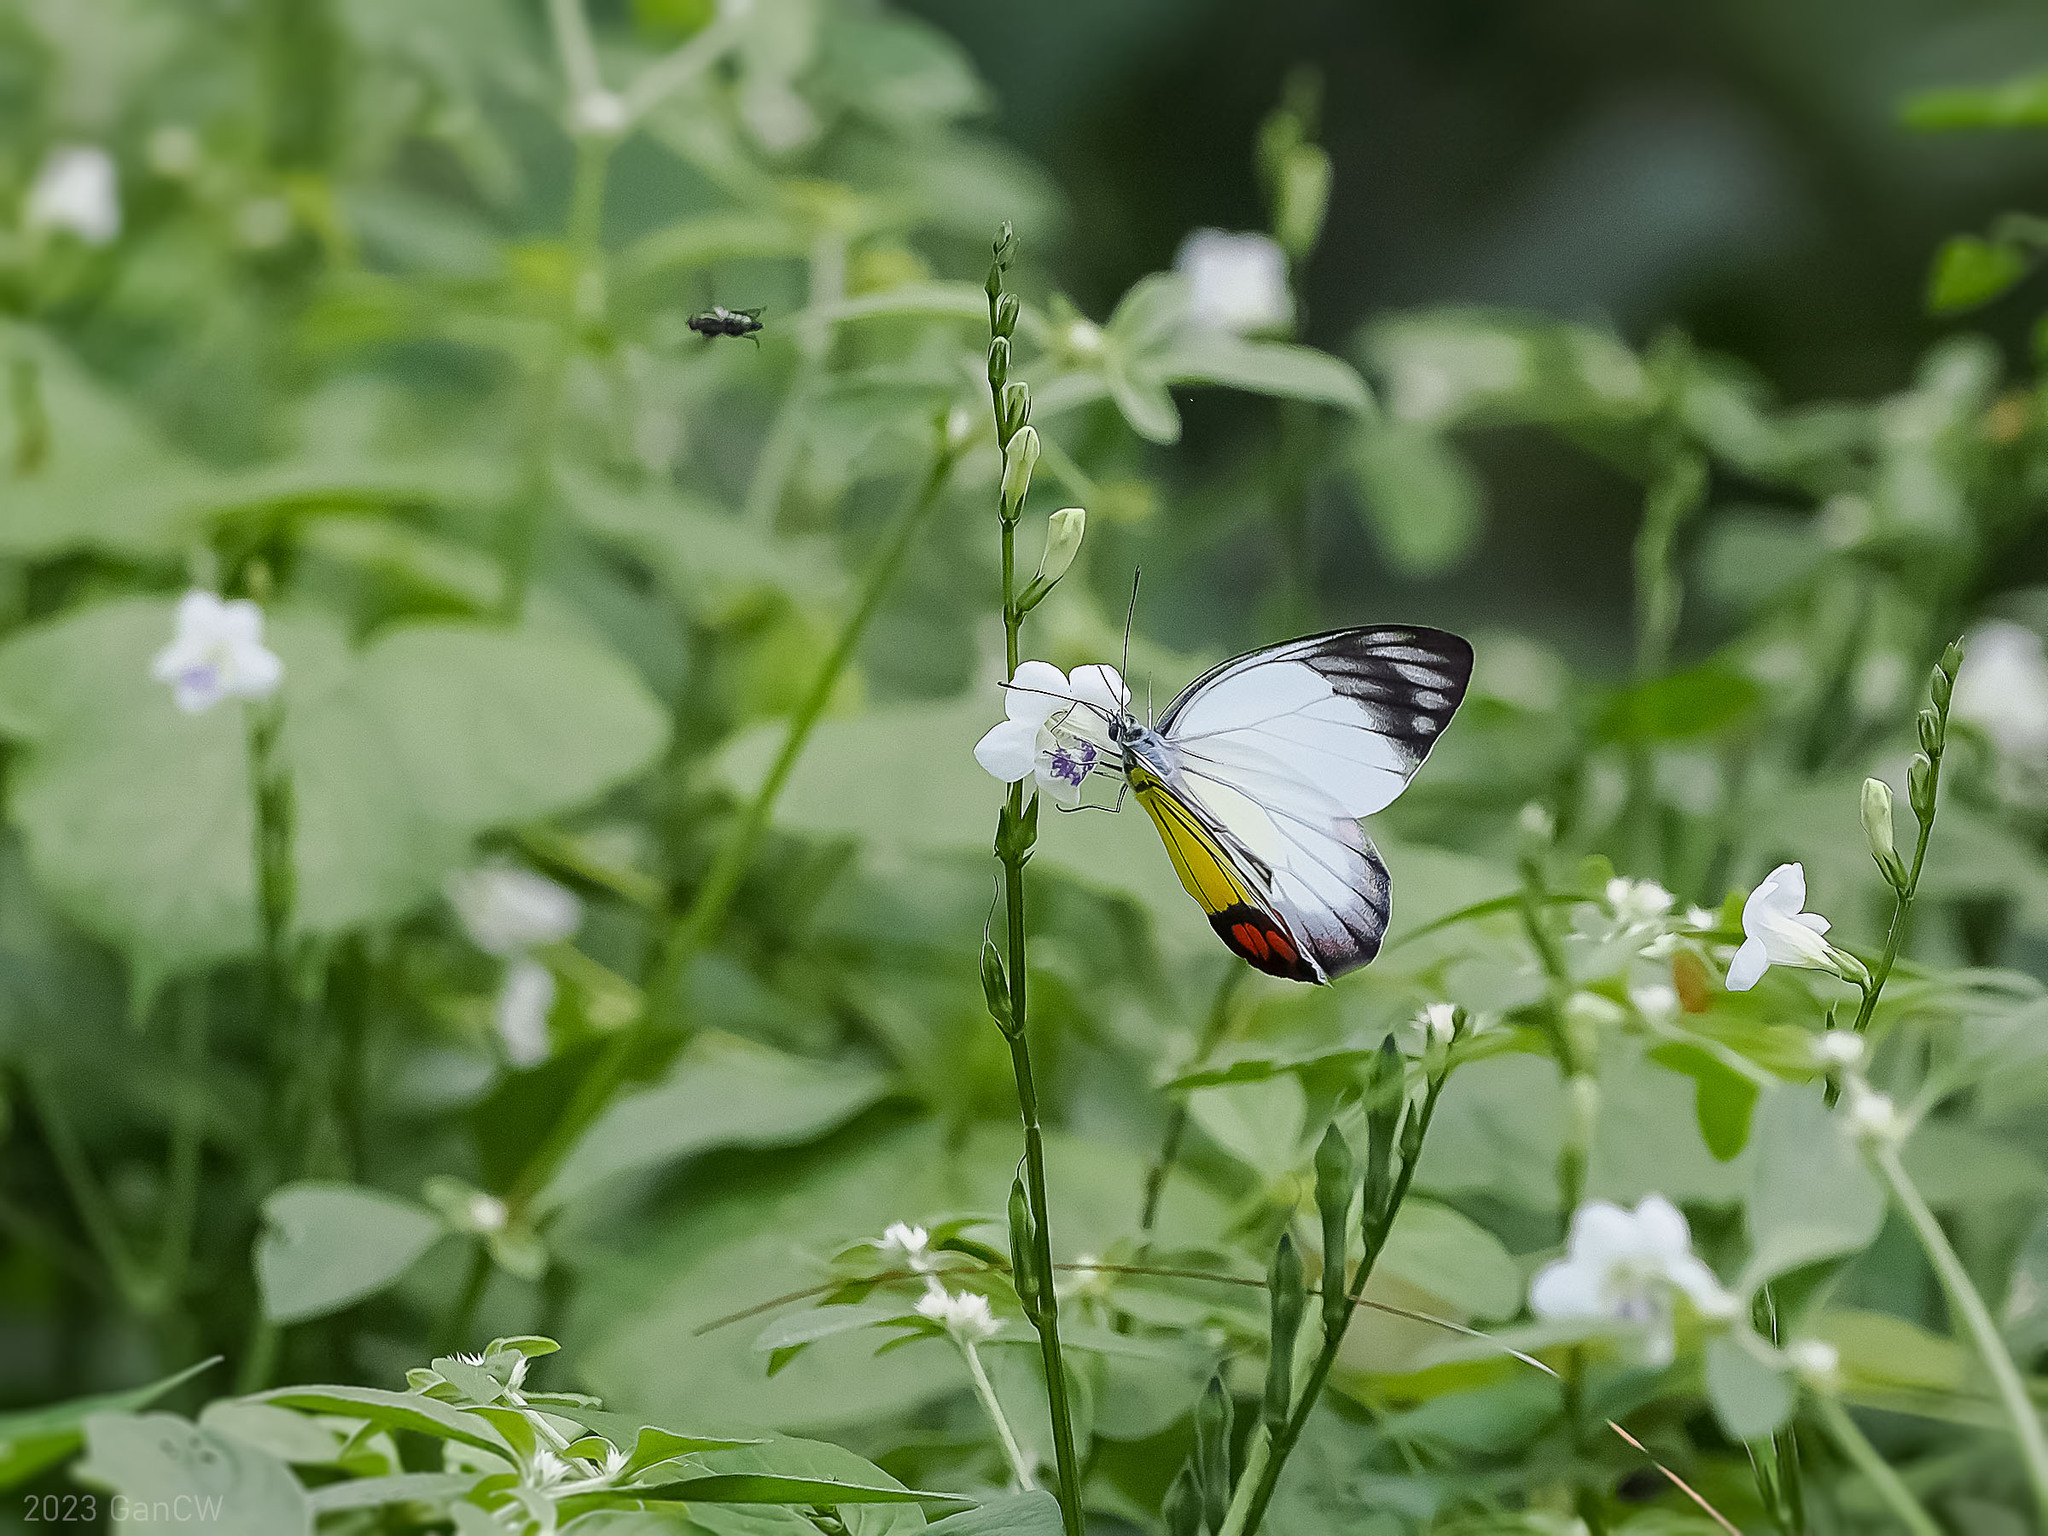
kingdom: Animalia
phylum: Arthropoda
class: Insecta
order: Lepidoptera
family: Pieridae
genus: Delias
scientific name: Delias hyparete
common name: Painted jezebel
